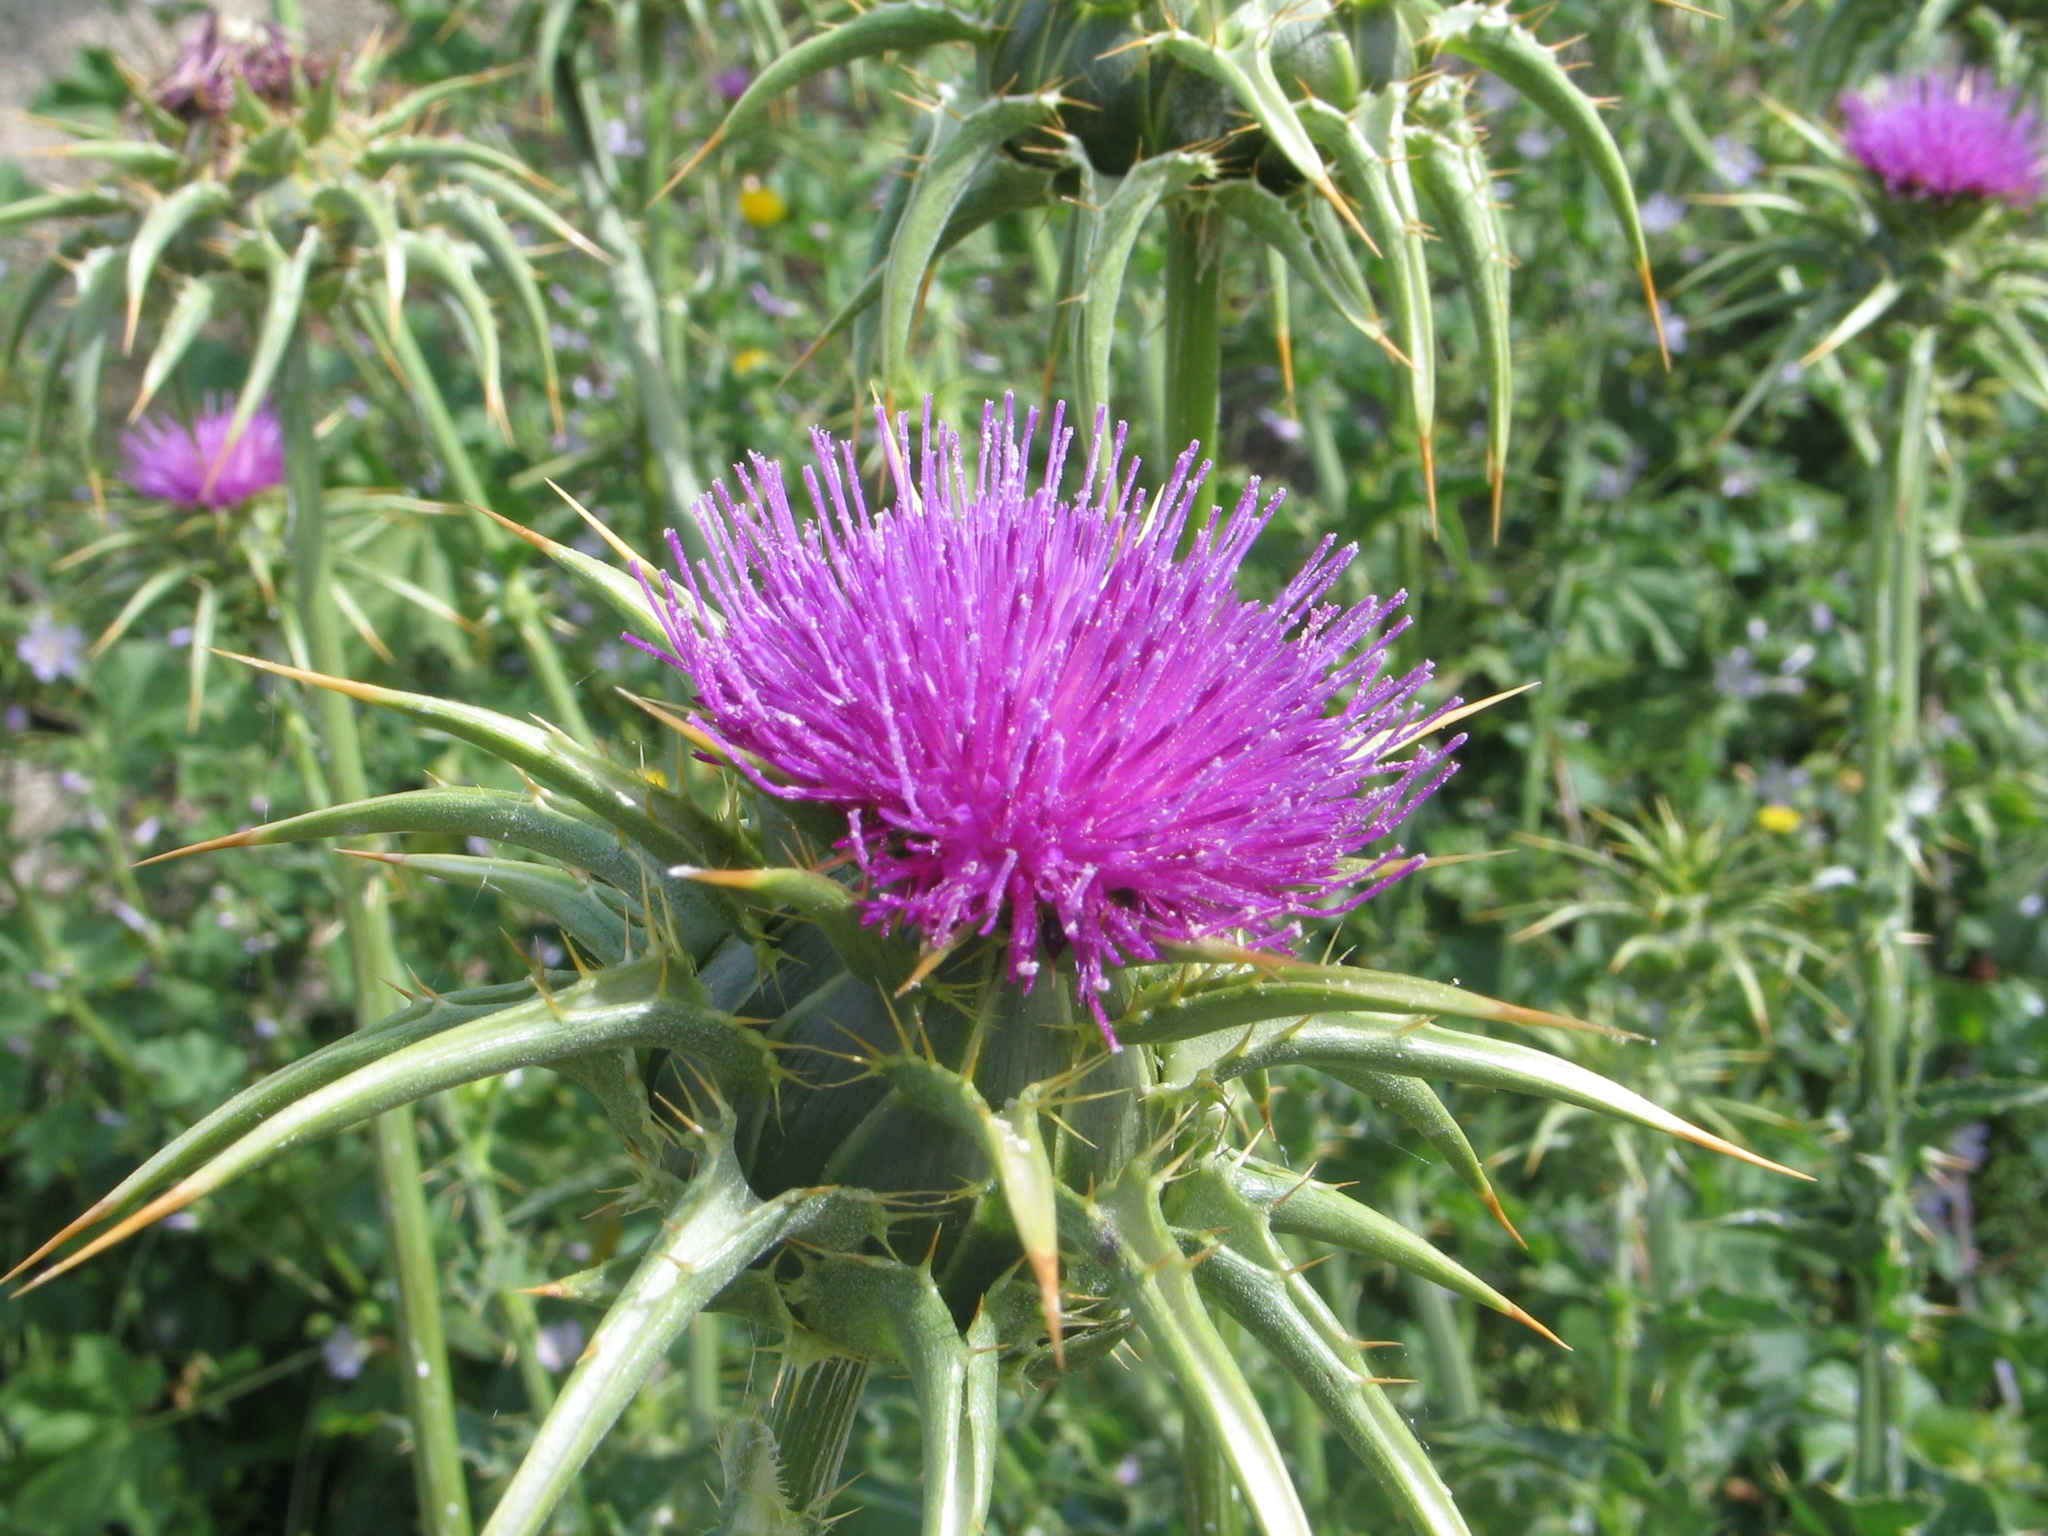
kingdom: Plantae
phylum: Tracheophyta
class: Magnoliopsida
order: Asterales
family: Asteraceae
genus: Silybum
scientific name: Silybum marianum
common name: Milk thistle
